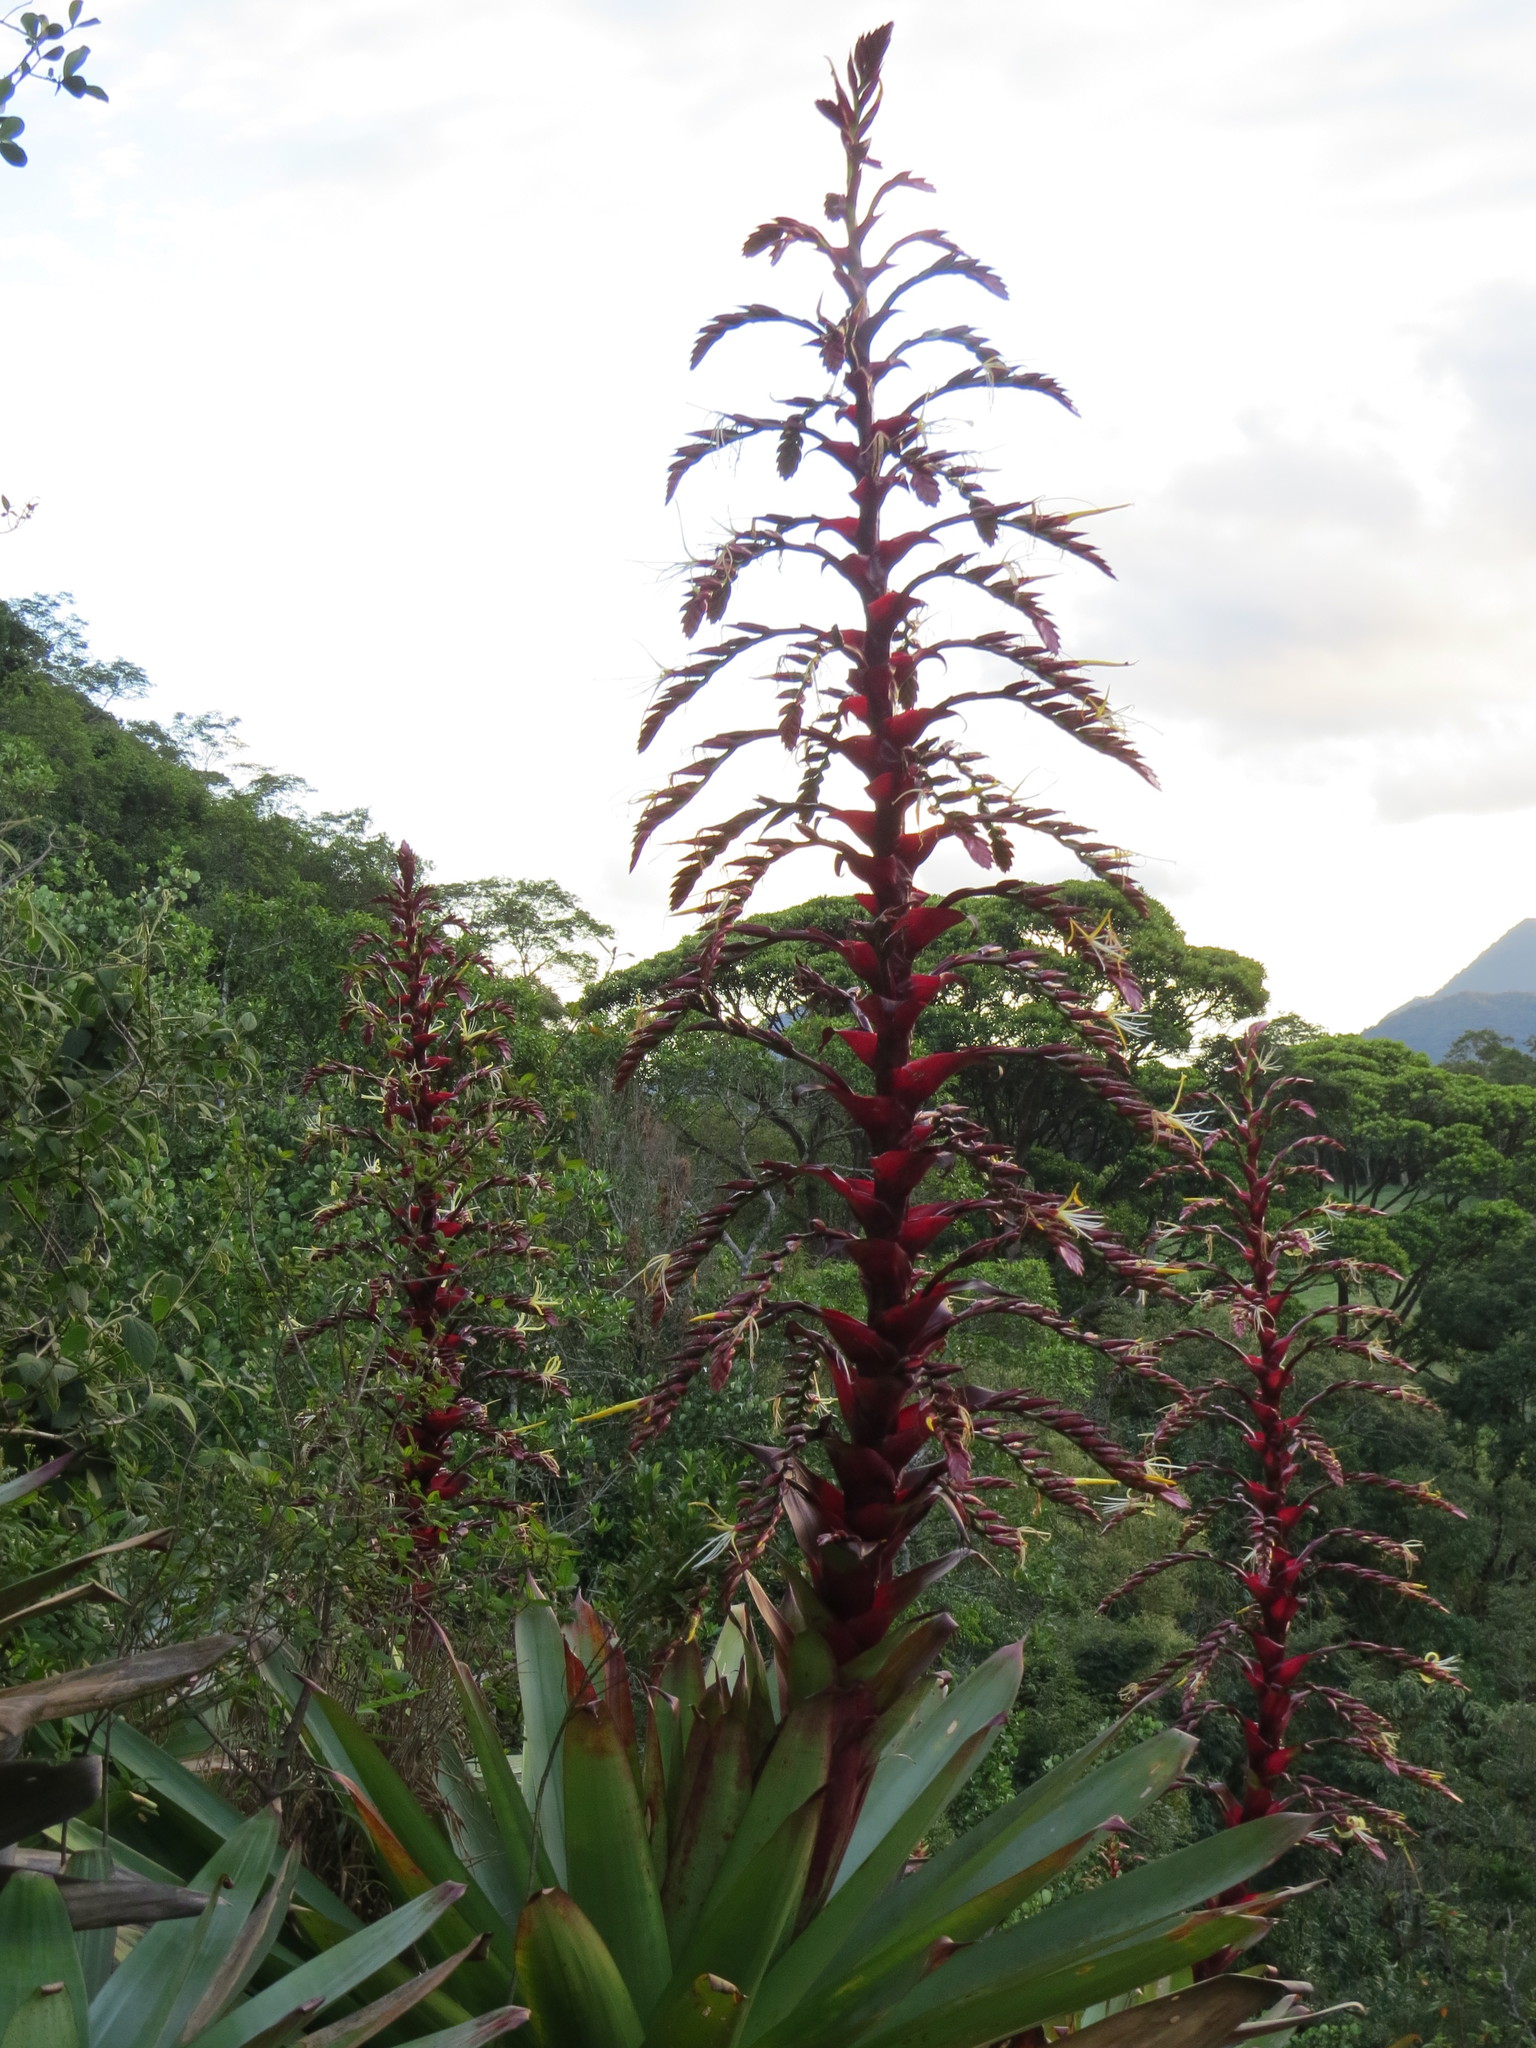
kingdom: Plantae
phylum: Tracheophyta
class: Liliopsida
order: Poales
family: Bromeliaceae
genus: Alcantarea
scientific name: Alcantarea imperialis
